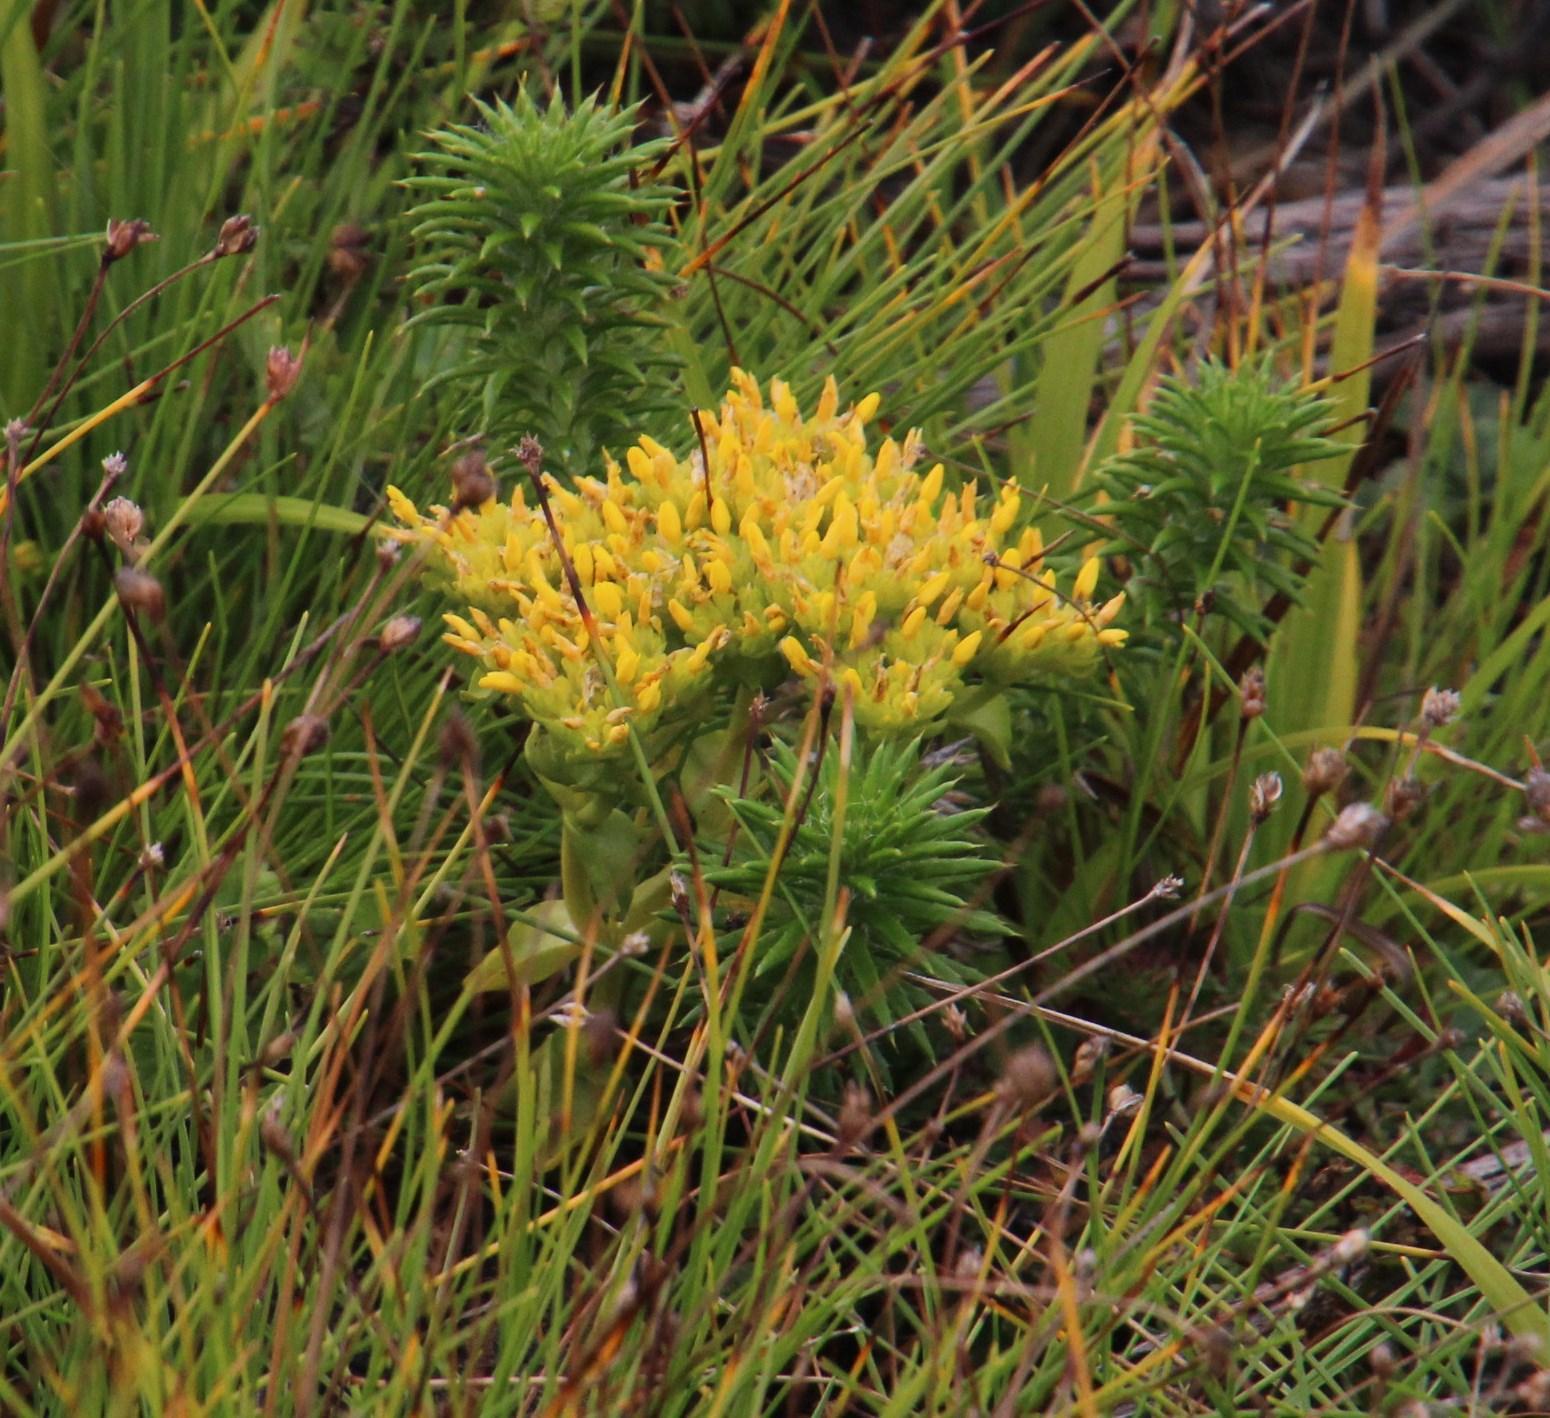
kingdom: Plantae
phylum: Tracheophyta
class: Magnoliopsida
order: Gentianales
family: Gentianaceae
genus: Sebaea
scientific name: Sebaea ambigua
